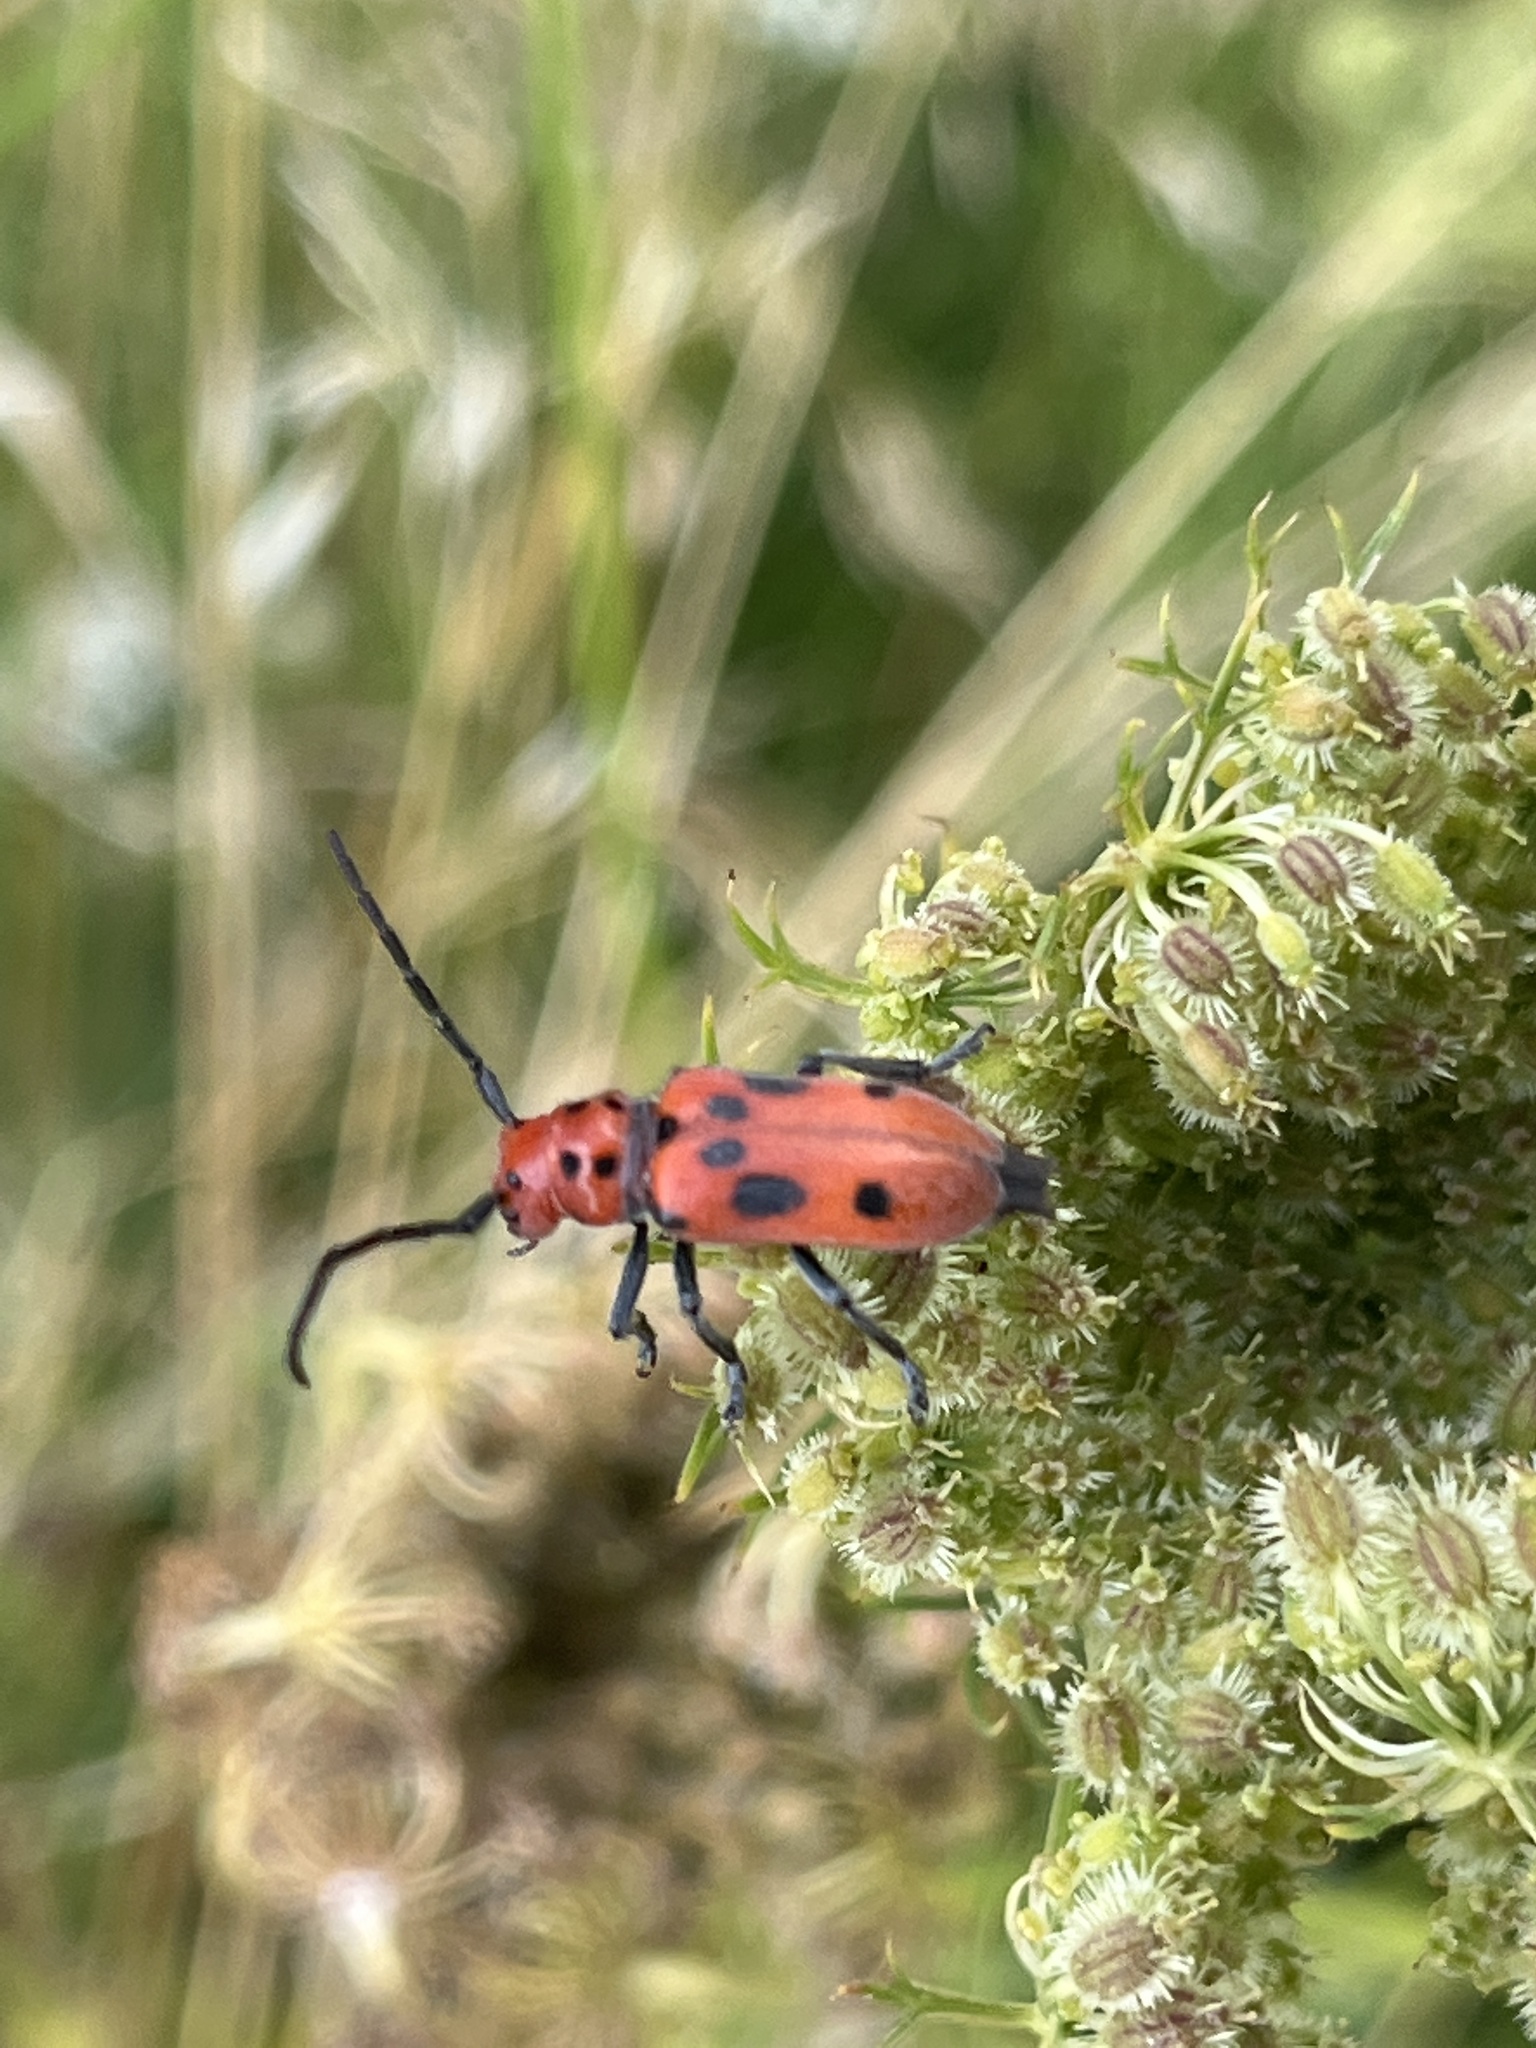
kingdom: Animalia
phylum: Arthropoda
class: Insecta
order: Coleoptera
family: Cerambycidae
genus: Tetraopes
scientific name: Tetraopes tetrophthalmus
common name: Red milkweed beetle
